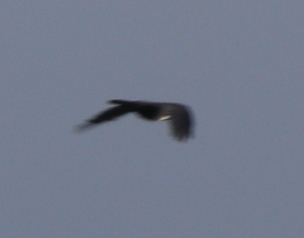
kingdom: Animalia
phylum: Chordata
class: Aves
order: Passeriformes
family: Corvidae
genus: Corvus
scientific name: Corvus albus
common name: Pied crow
